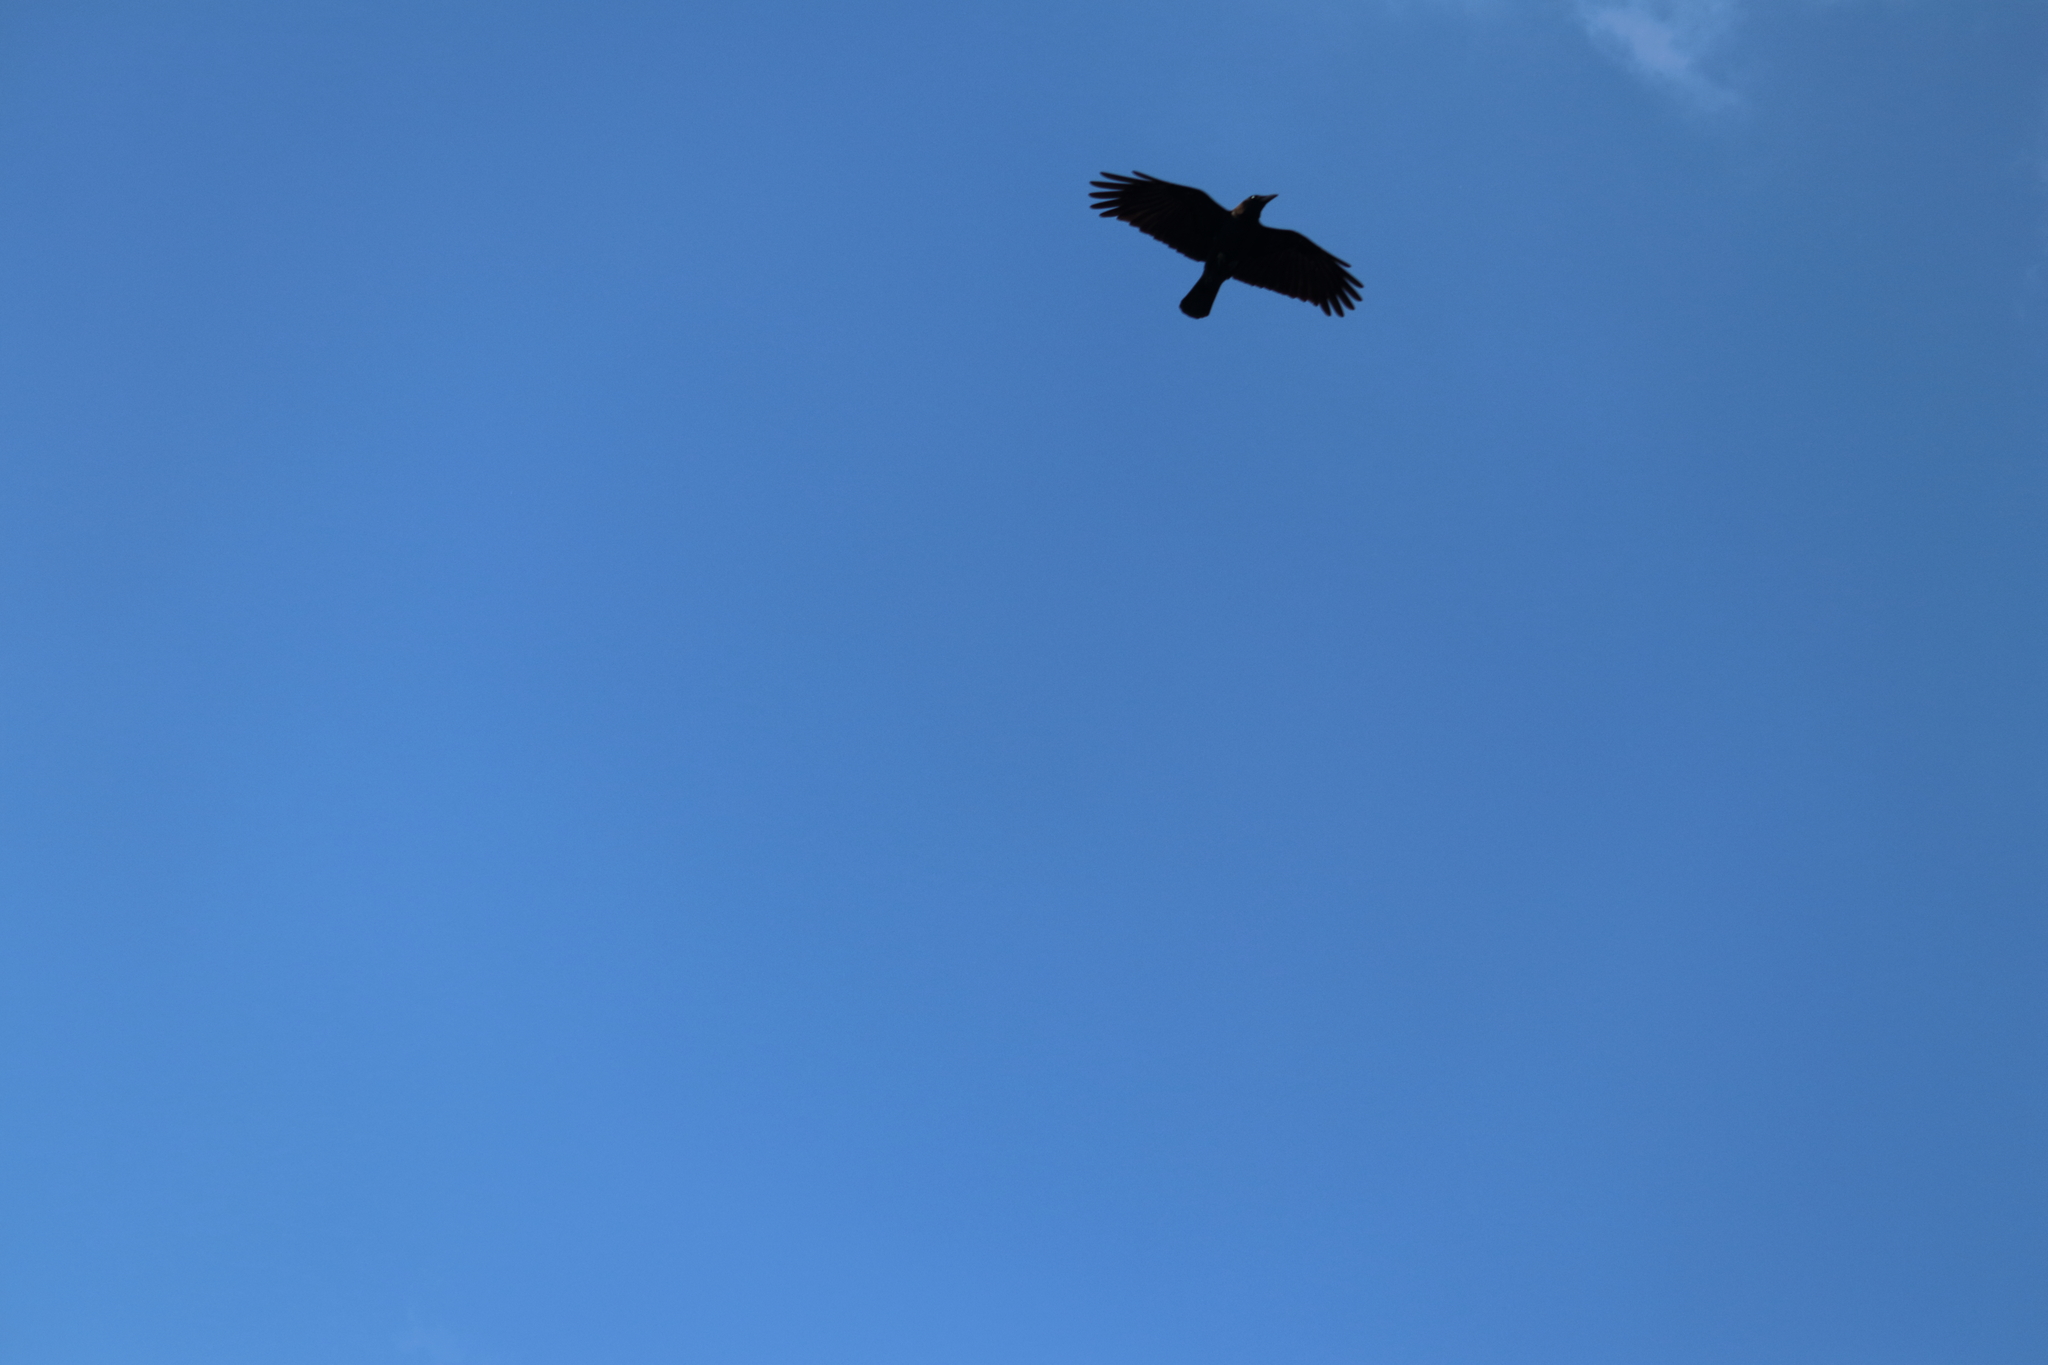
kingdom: Animalia
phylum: Chordata
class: Aves
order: Passeriformes
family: Corvidae
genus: Corvus
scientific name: Corvus brachyrhynchos
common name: American crow
